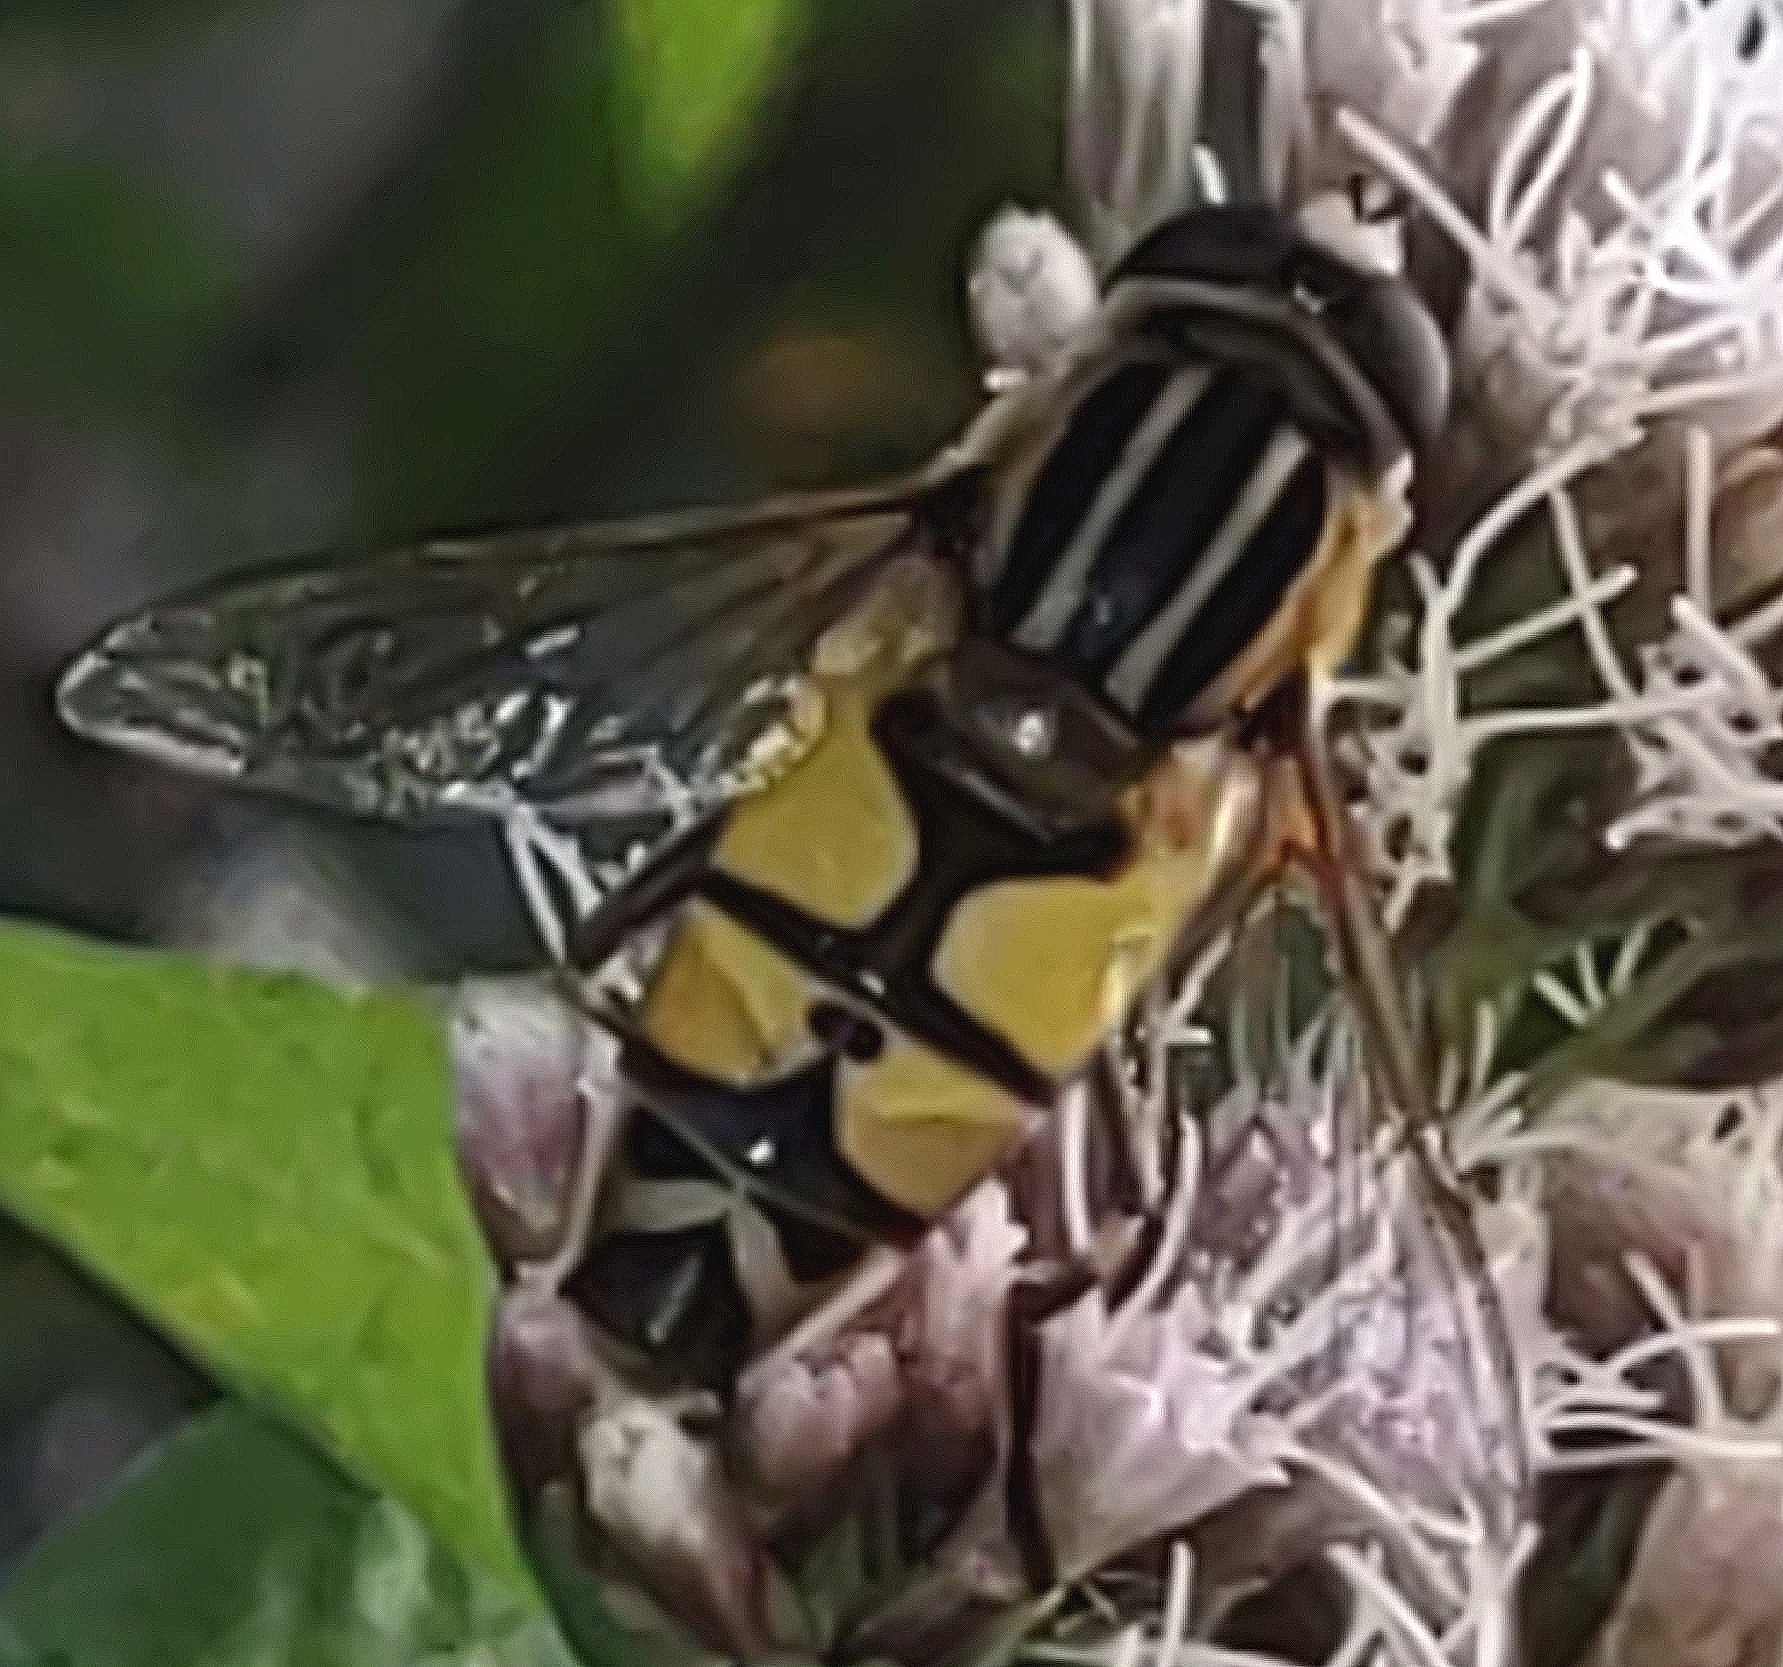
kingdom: Animalia
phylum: Arthropoda
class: Insecta
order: Diptera
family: Syrphidae
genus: Helophilus
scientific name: Helophilus trivittatus
